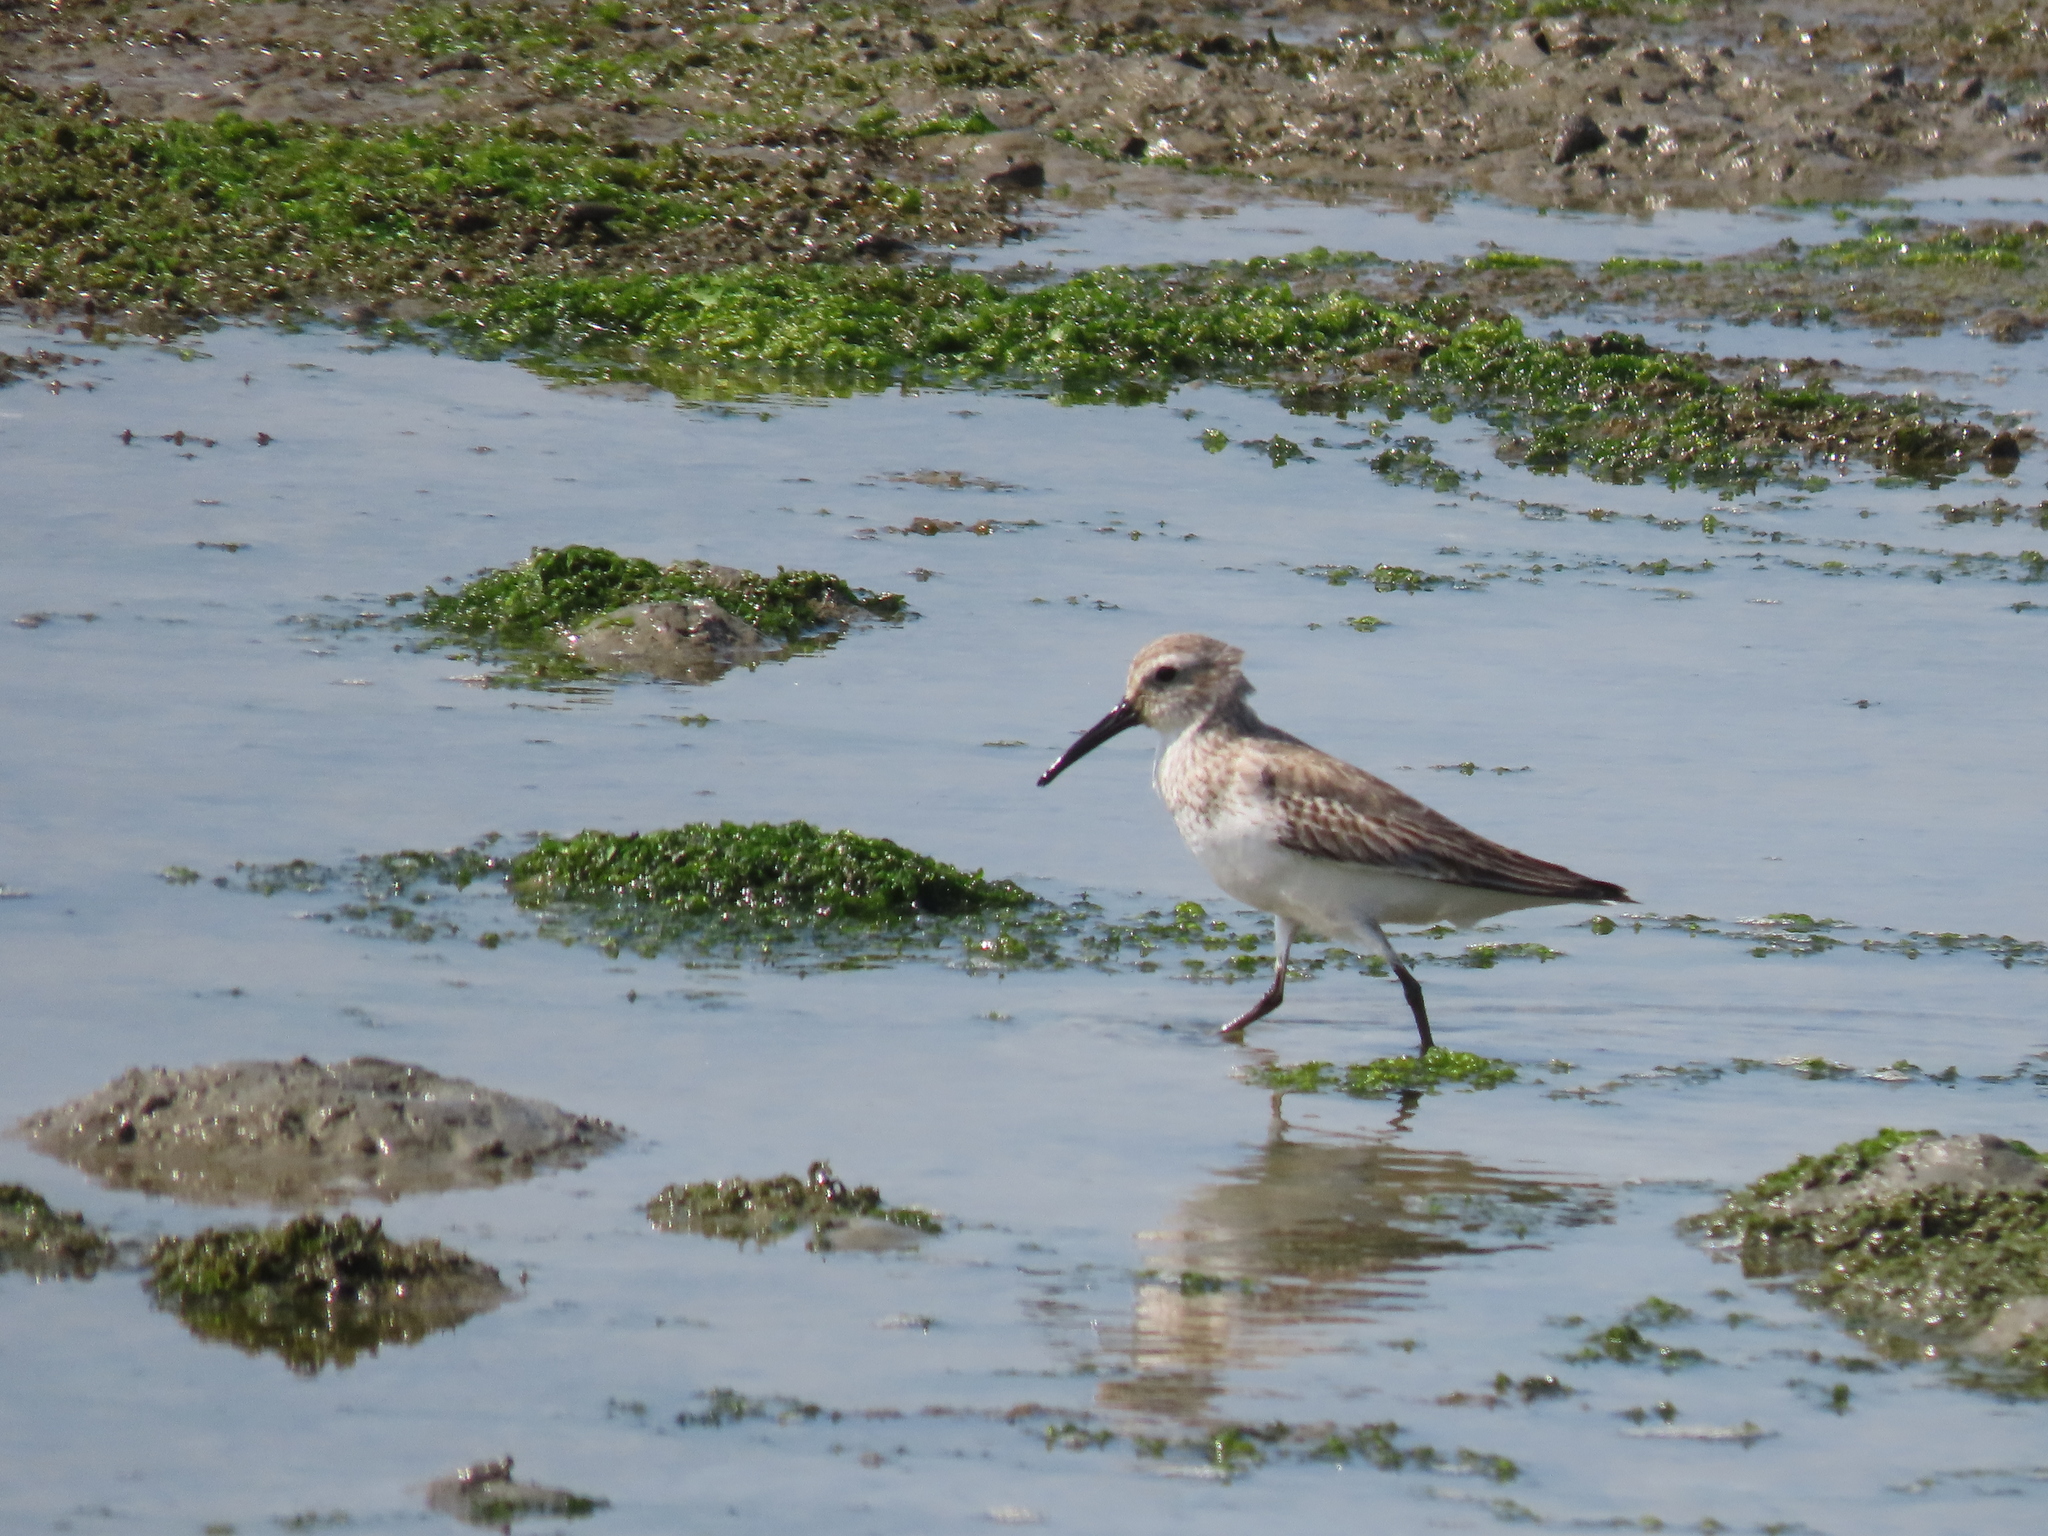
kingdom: Animalia
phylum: Chordata
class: Aves
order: Charadriiformes
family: Scolopacidae
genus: Calidris
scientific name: Calidris alpina
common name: Dunlin
